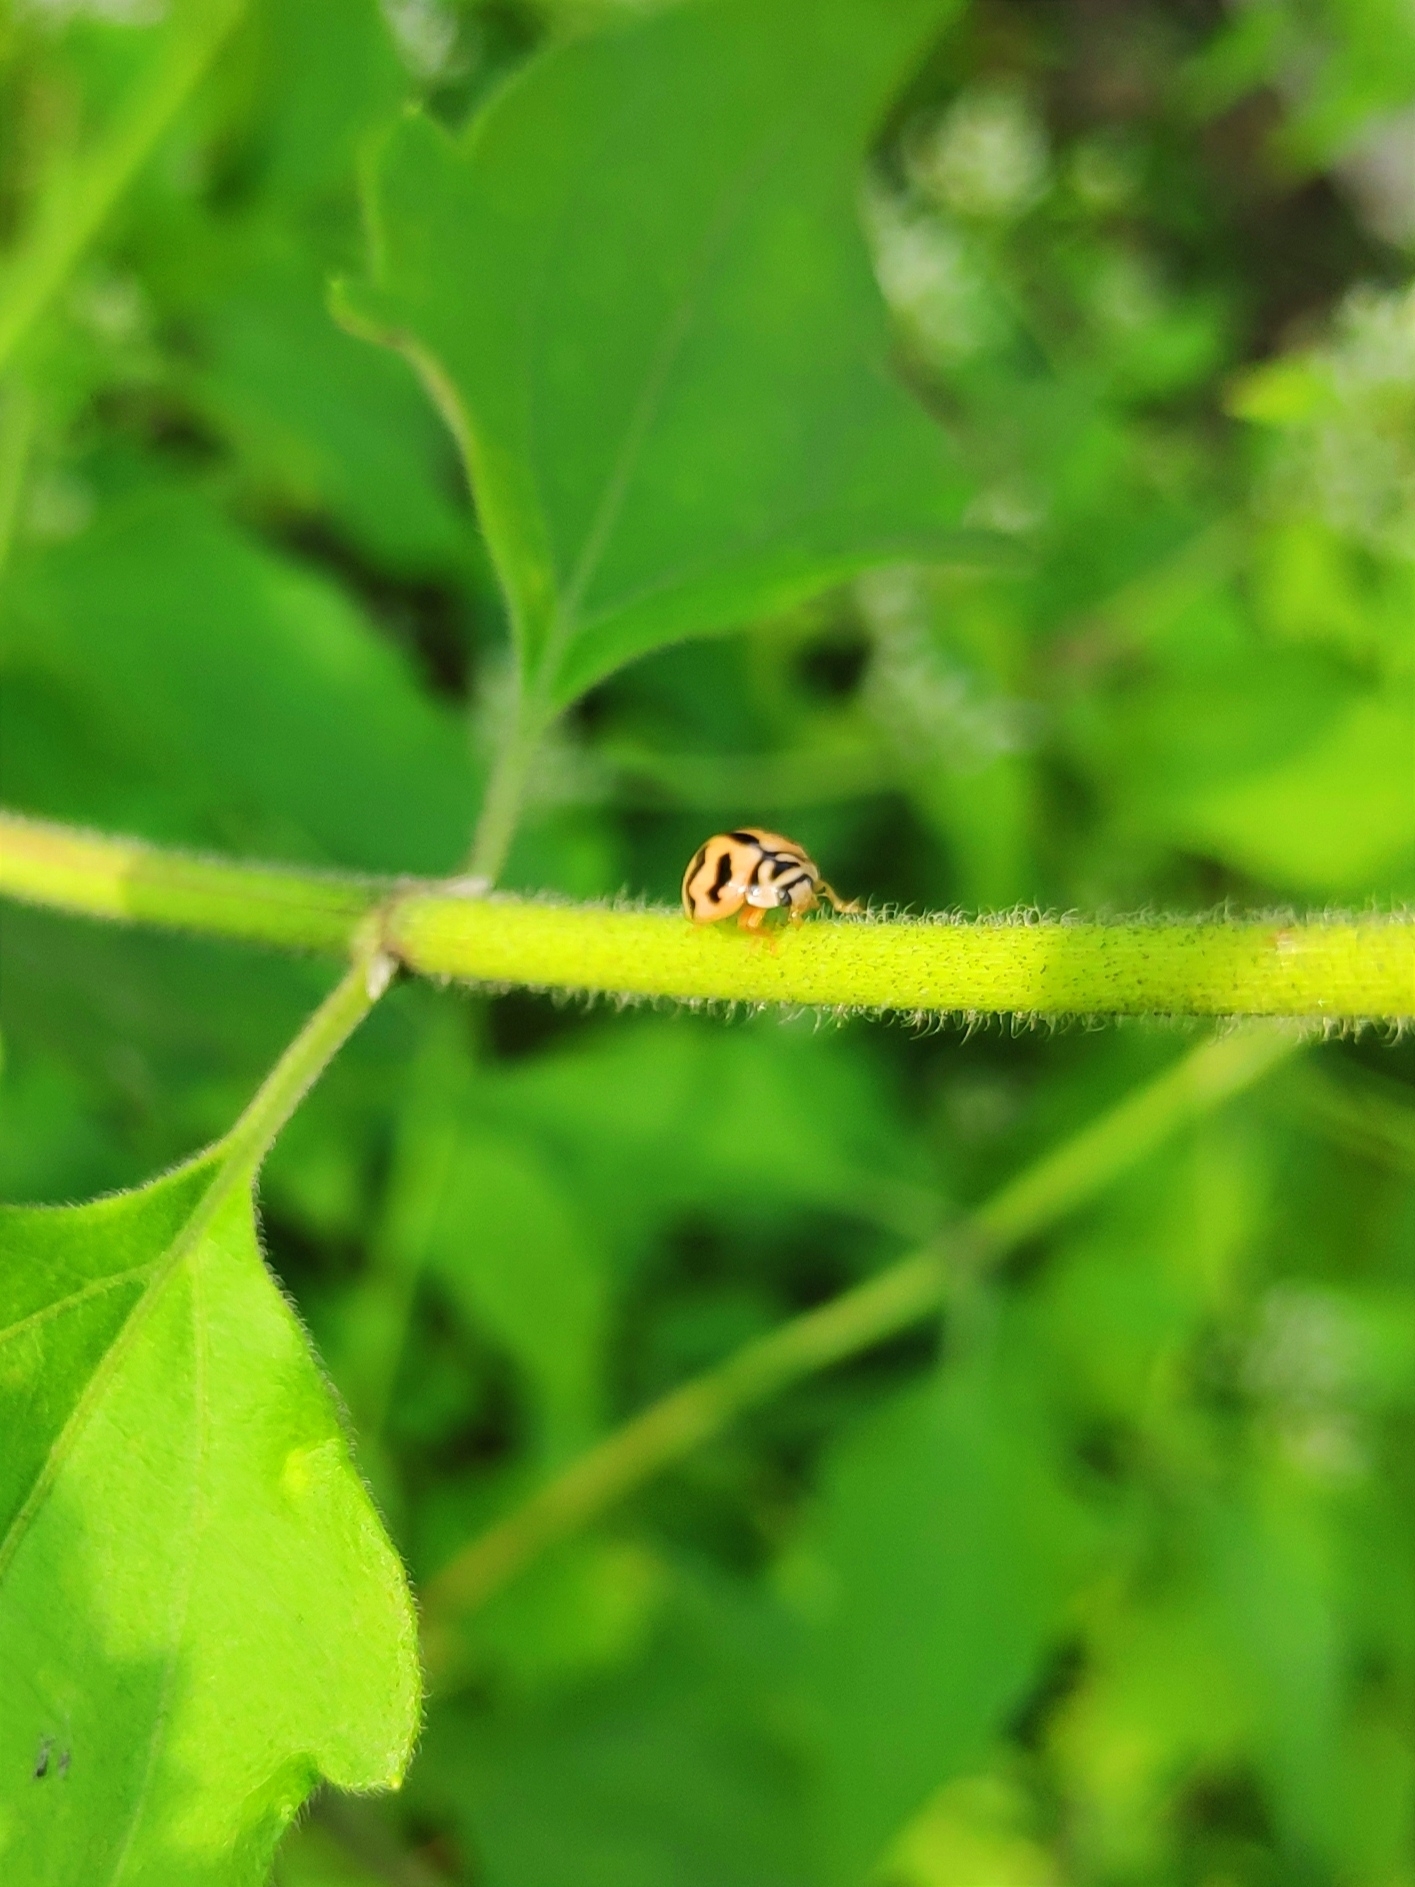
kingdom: Animalia
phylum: Arthropoda
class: Insecta
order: Coleoptera
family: Coccinellidae
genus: Cheilomenes
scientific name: Cheilomenes sexmaculata
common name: Ladybird beetle
